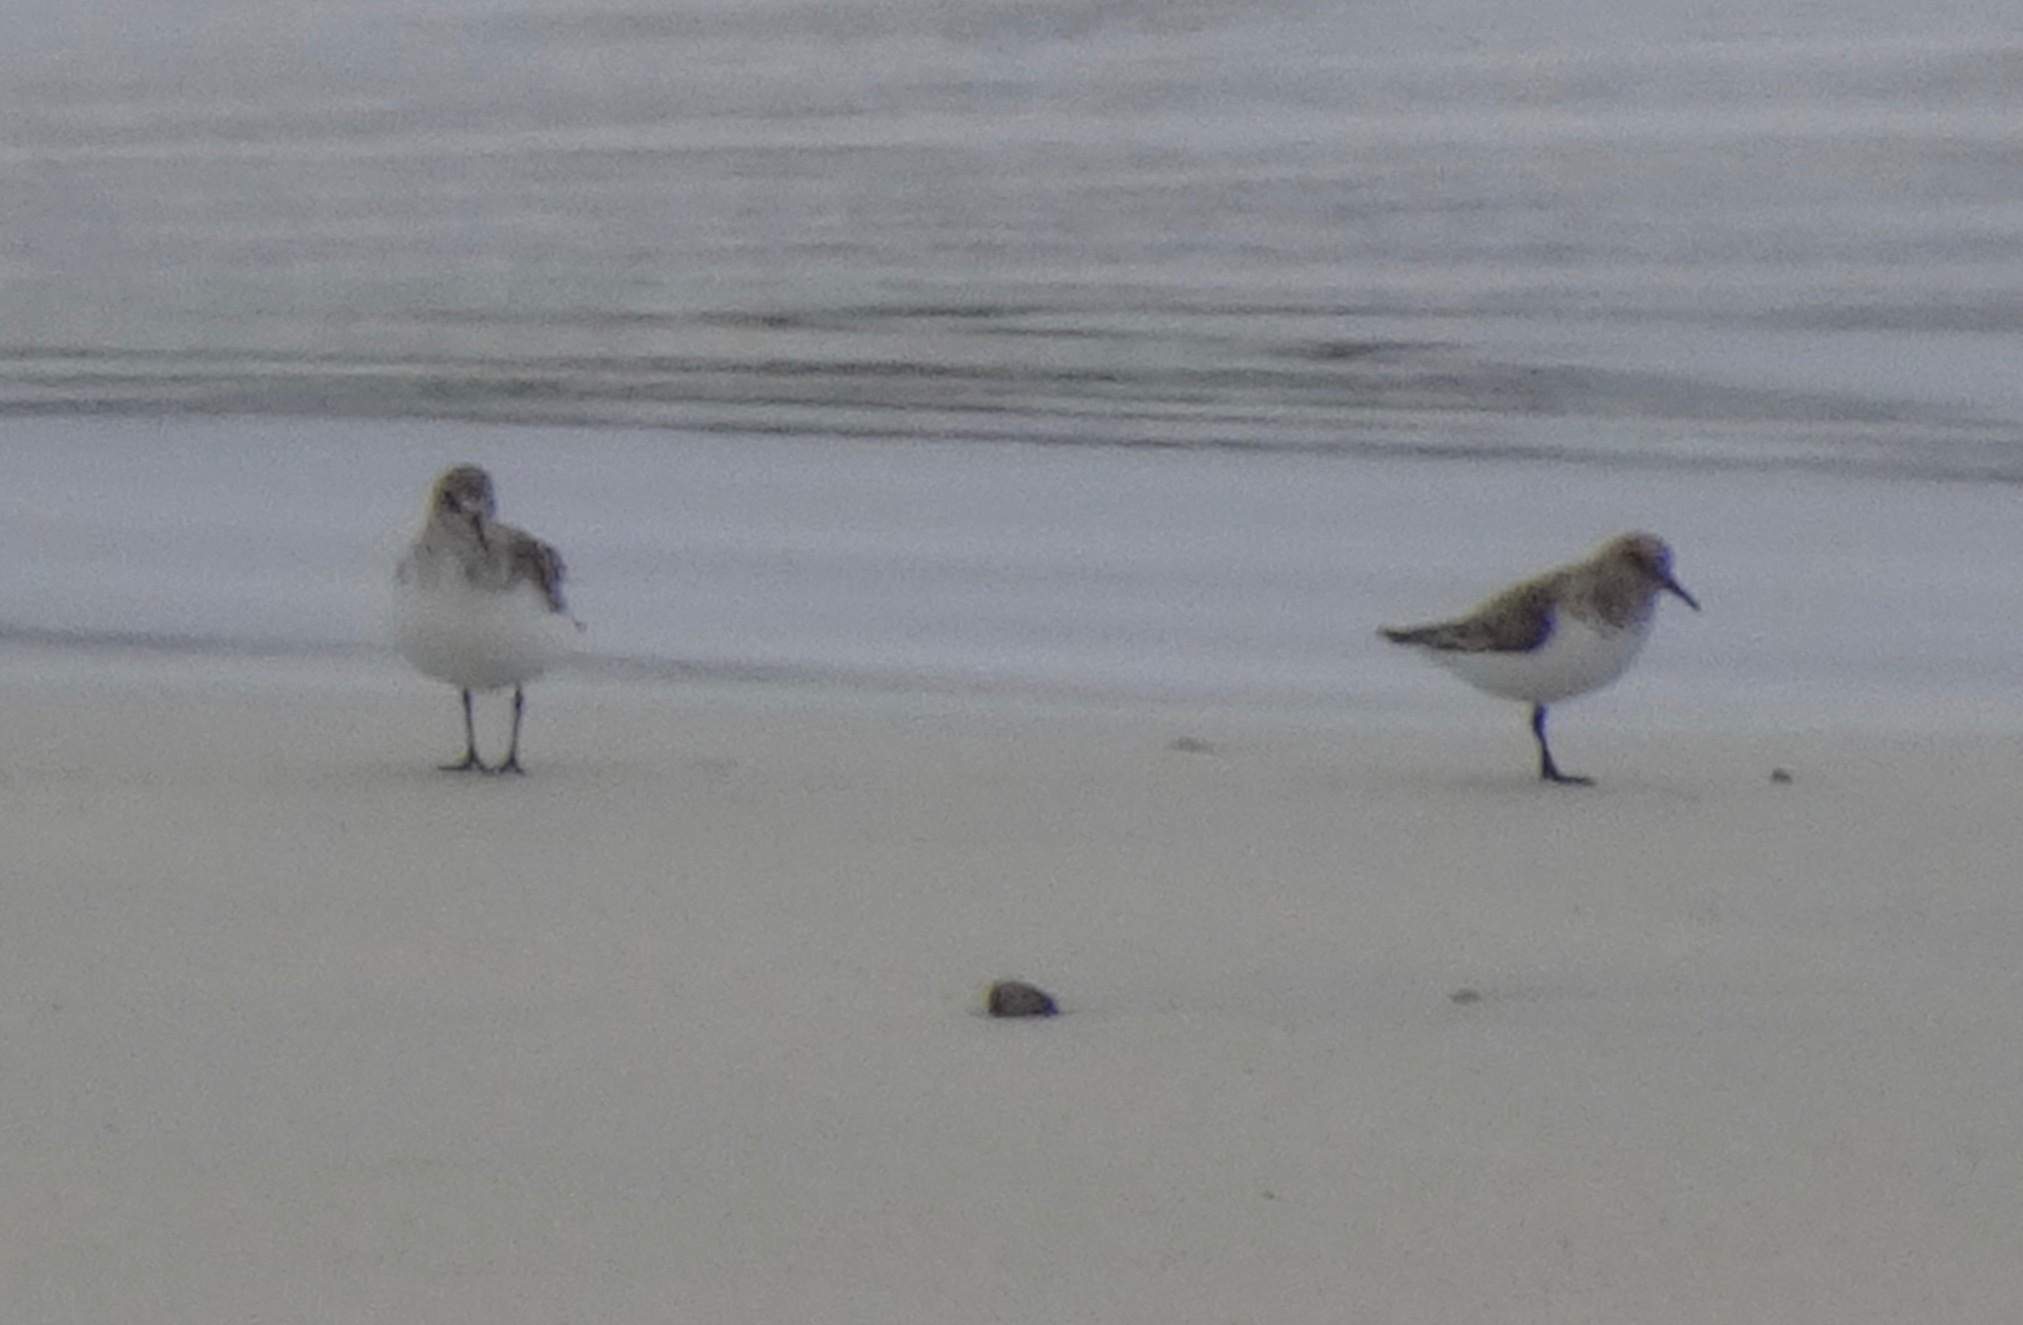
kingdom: Animalia
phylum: Chordata
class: Aves
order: Charadriiformes
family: Scolopacidae
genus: Calidris
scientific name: Calidris alba
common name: Sanderling
